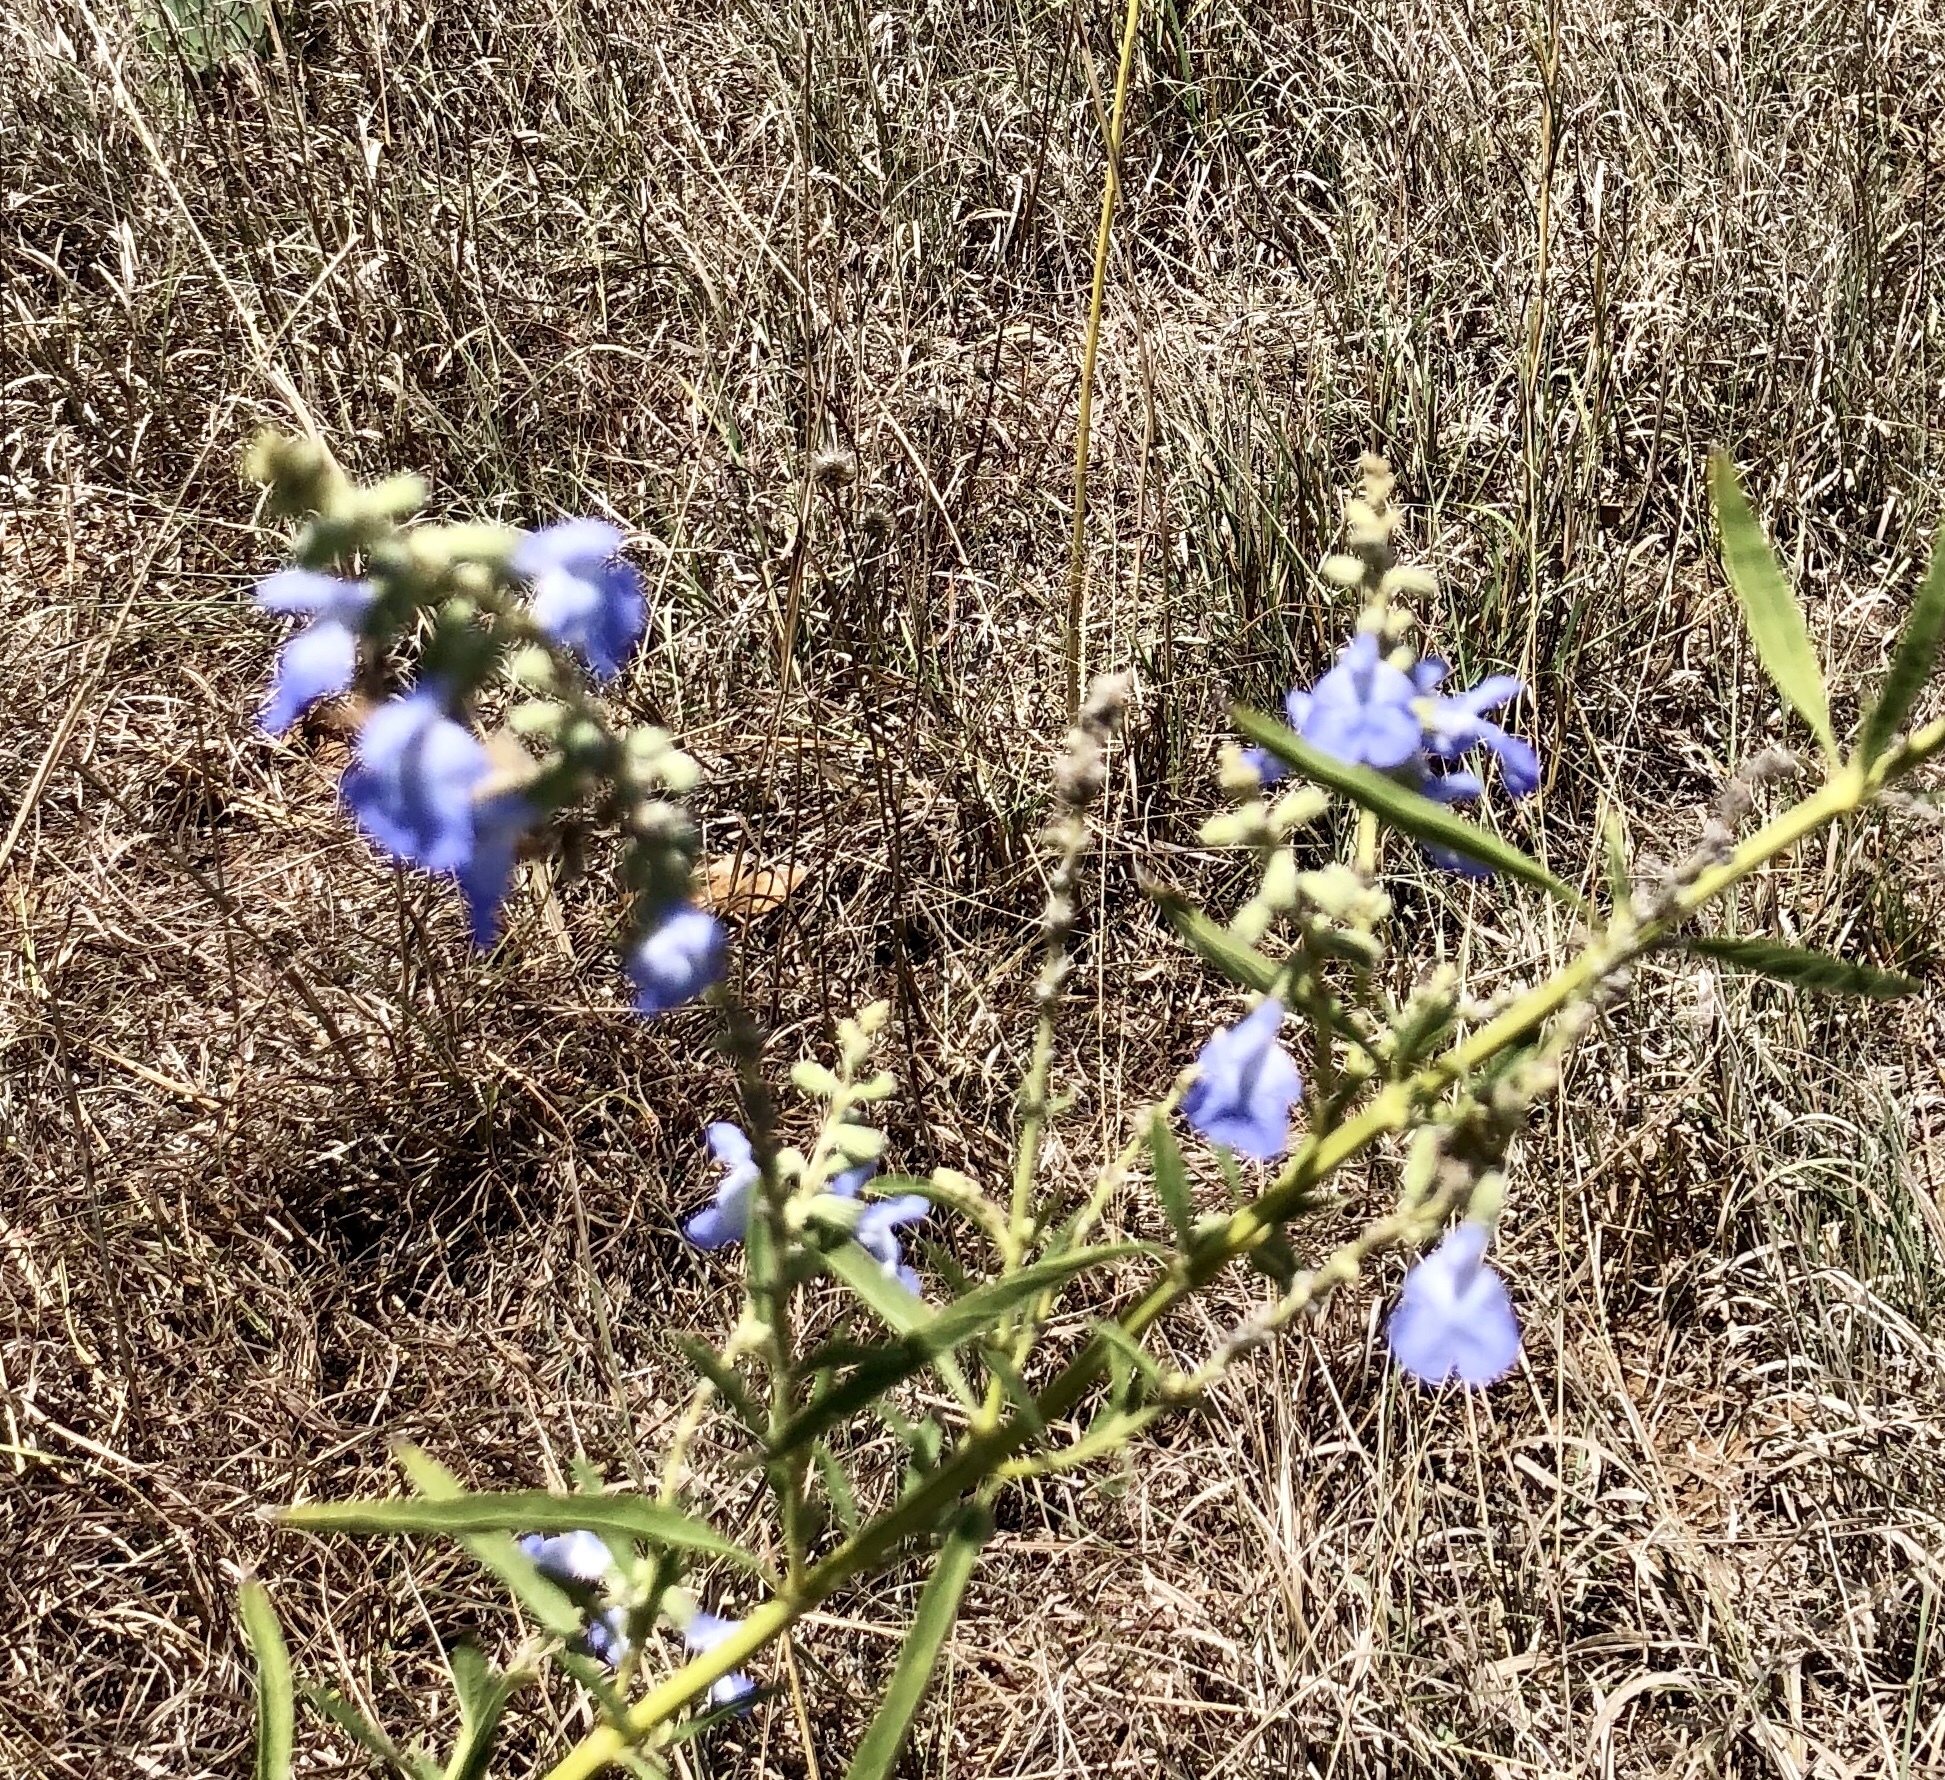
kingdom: Plantae
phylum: Tracheophyta
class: Magnoliopsida
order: Lamiales
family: Lamiaceae
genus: Salvia
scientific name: Salvia azurea
